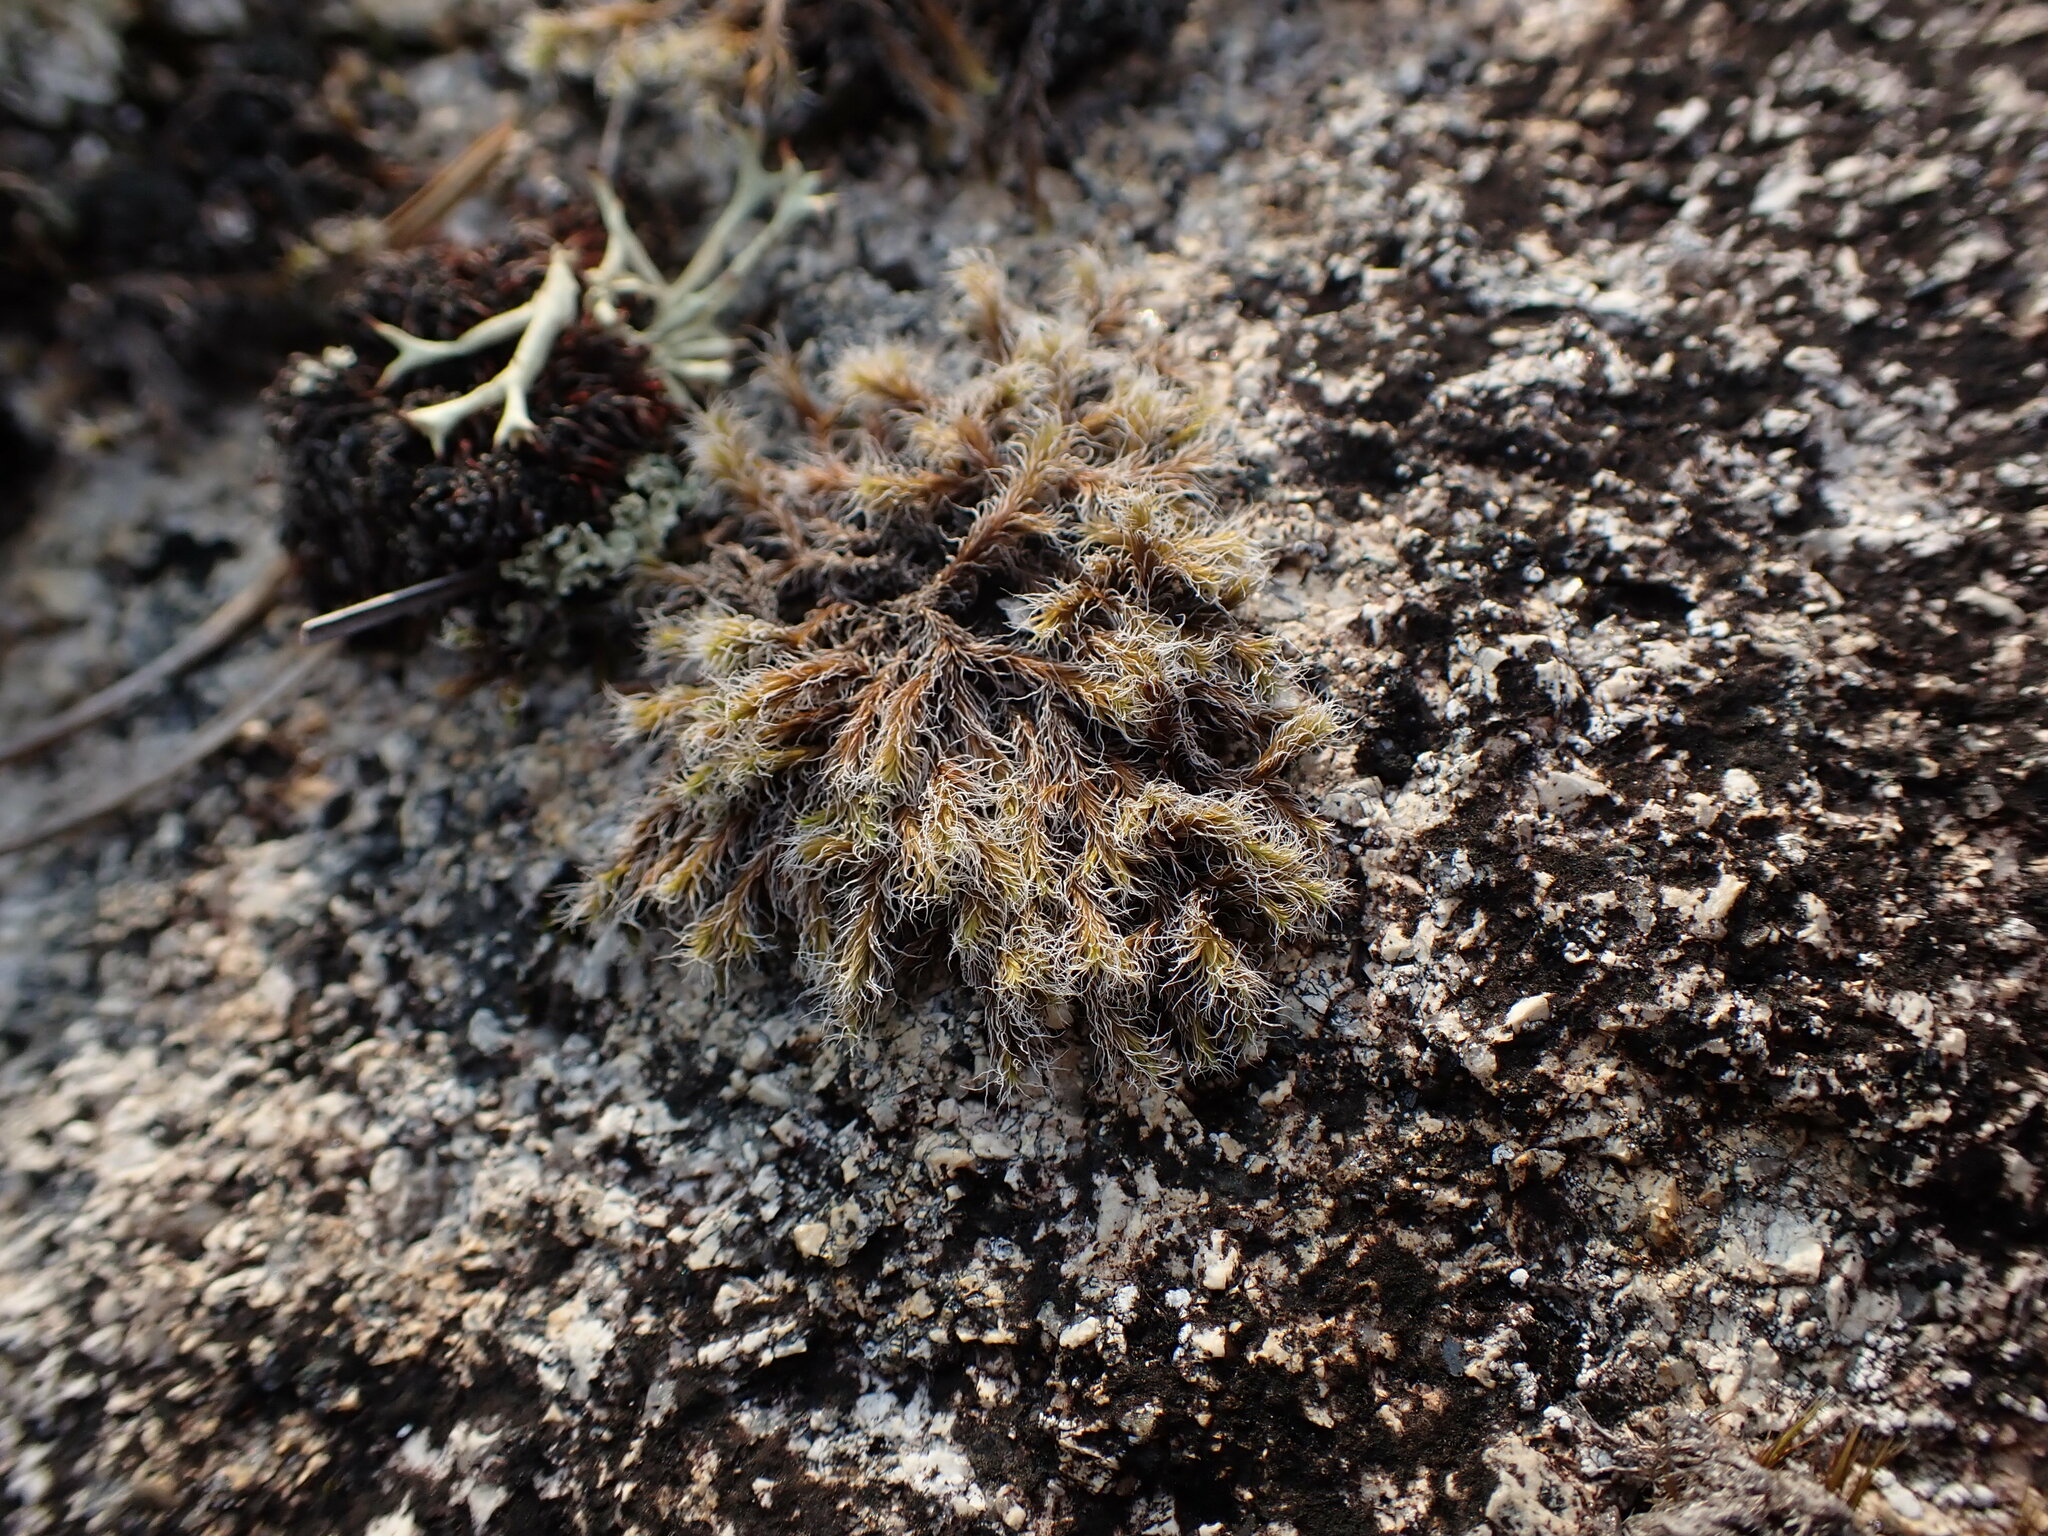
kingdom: Plantae
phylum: Bryophyta
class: Bryopsida
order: Grimmiales
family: Grimmiaceae
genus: Racomitrium
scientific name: Racomitrium lanuginosum
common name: Hoary rock moss
